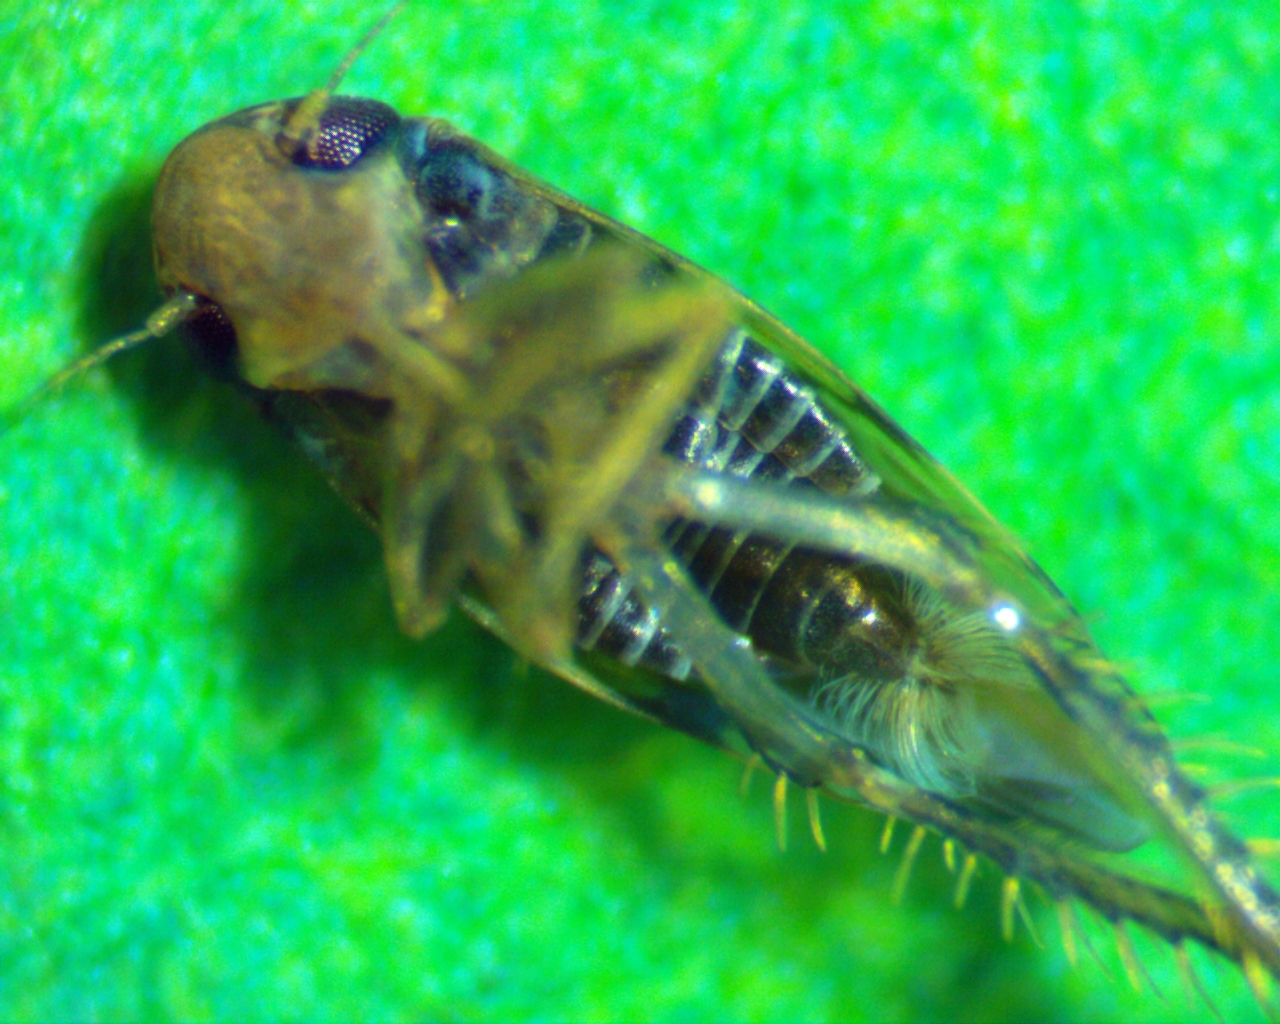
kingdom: Animalia
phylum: Arthropoda
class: Insecta
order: Hemiptera
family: Cicadellidae
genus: Xestocephalus
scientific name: Xestocephalus superbus
